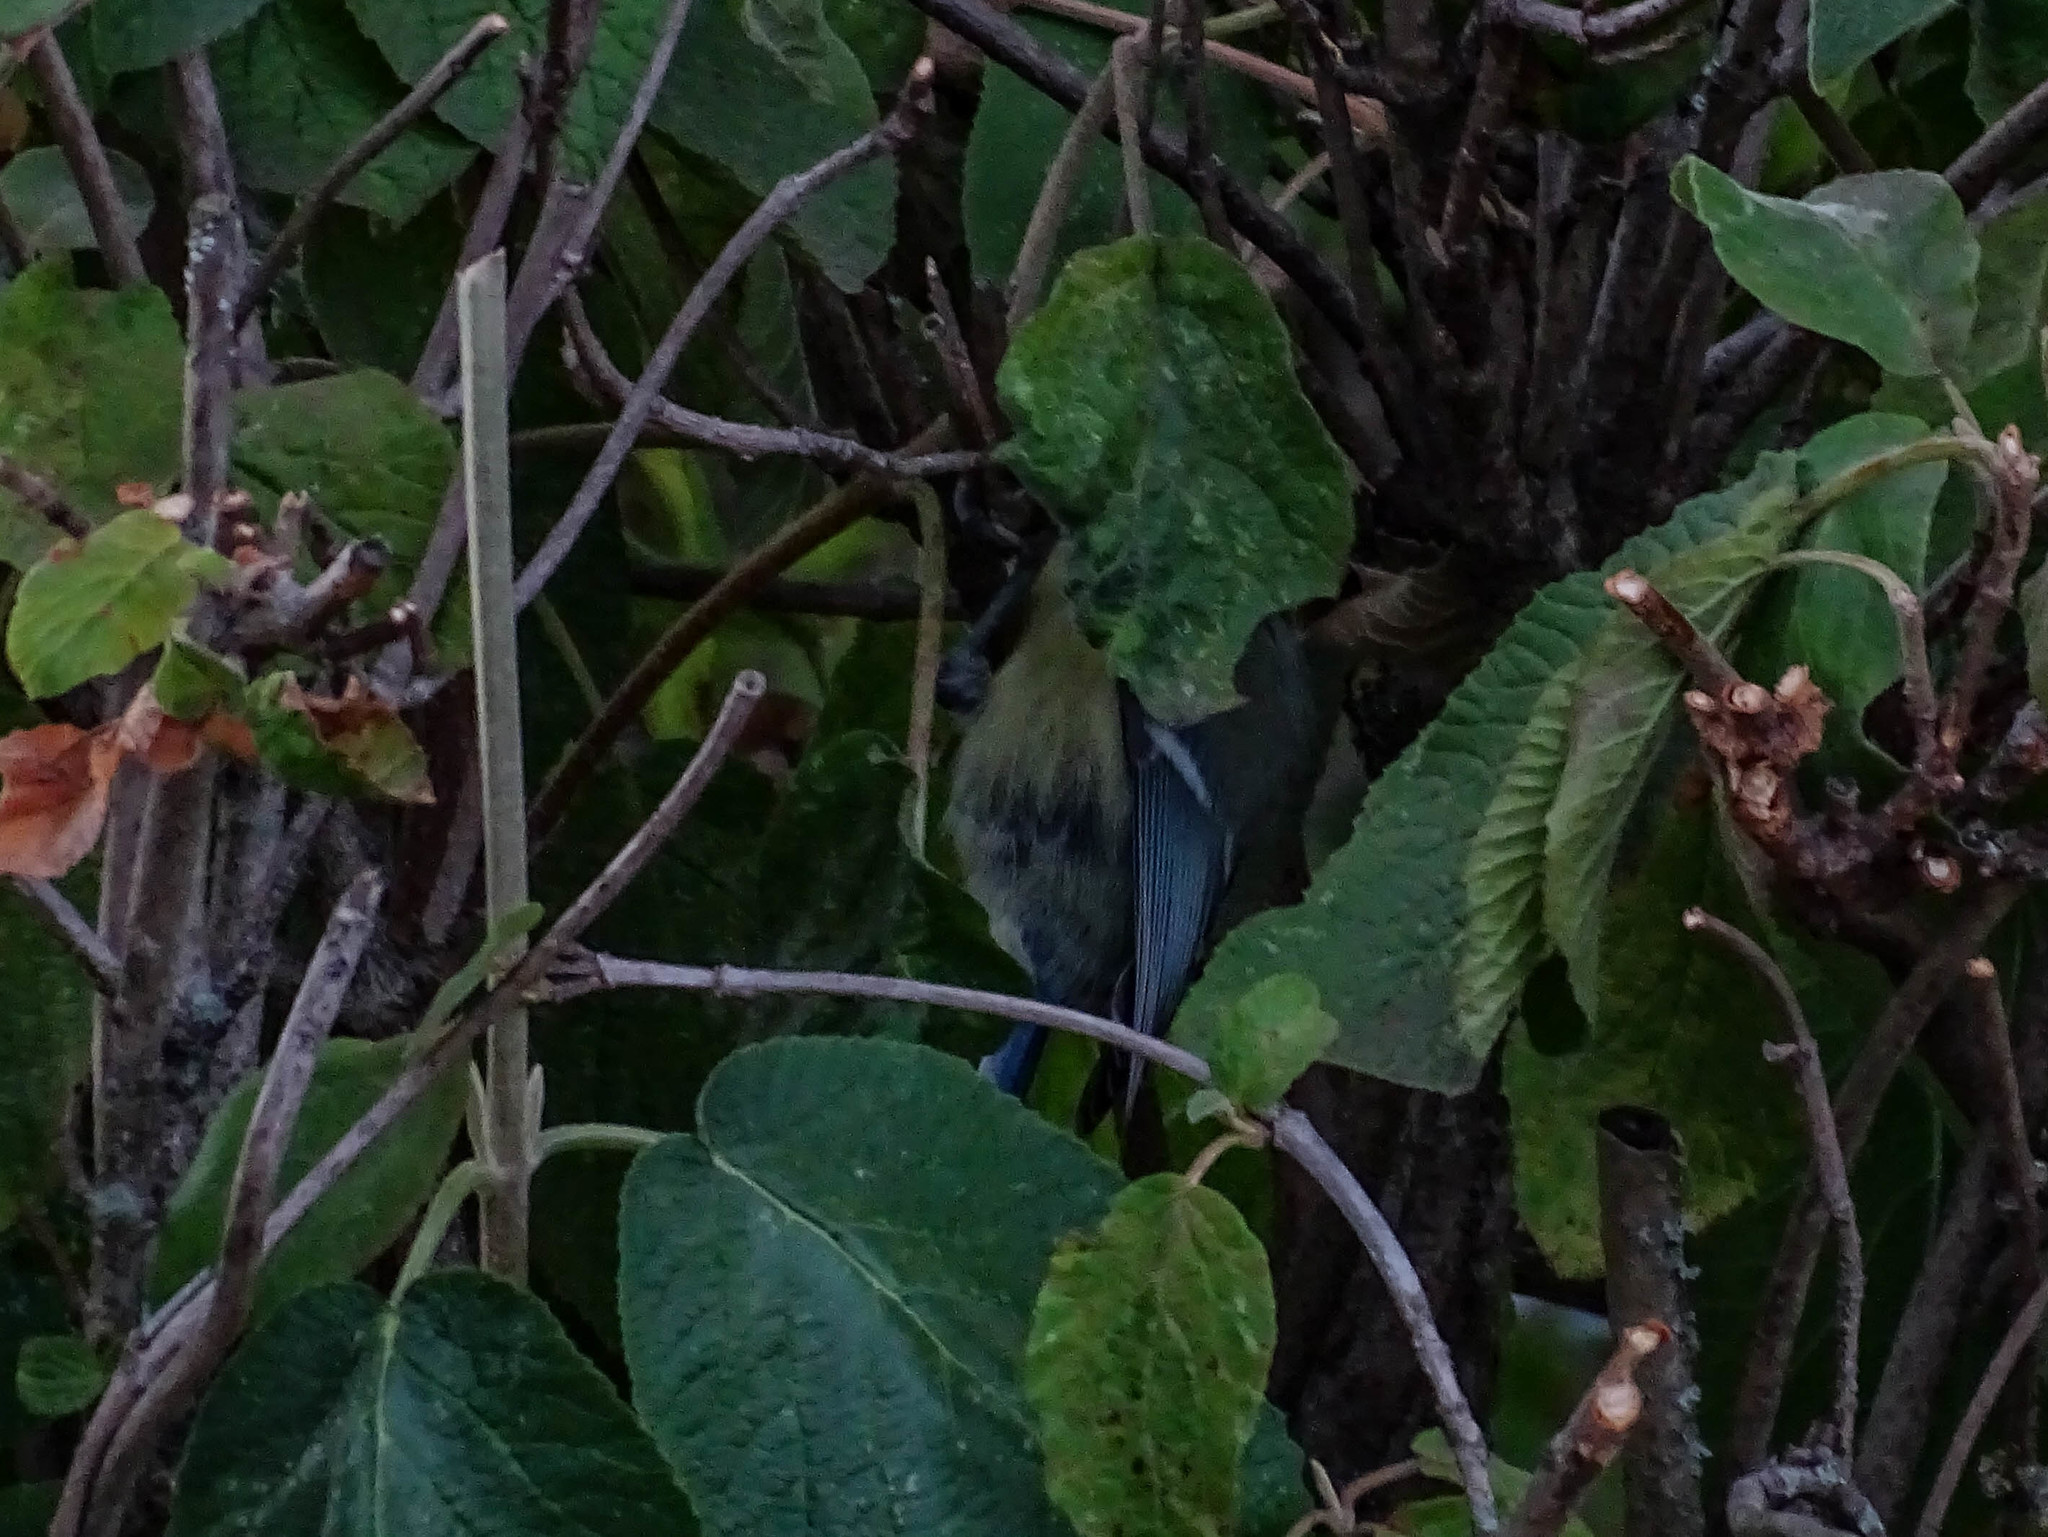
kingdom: Animalia
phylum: Chordata
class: Aves
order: Passeriformes
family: Paridae
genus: Cyanistes
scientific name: Cyanistes caeruleus
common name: Eurasian blue tit
